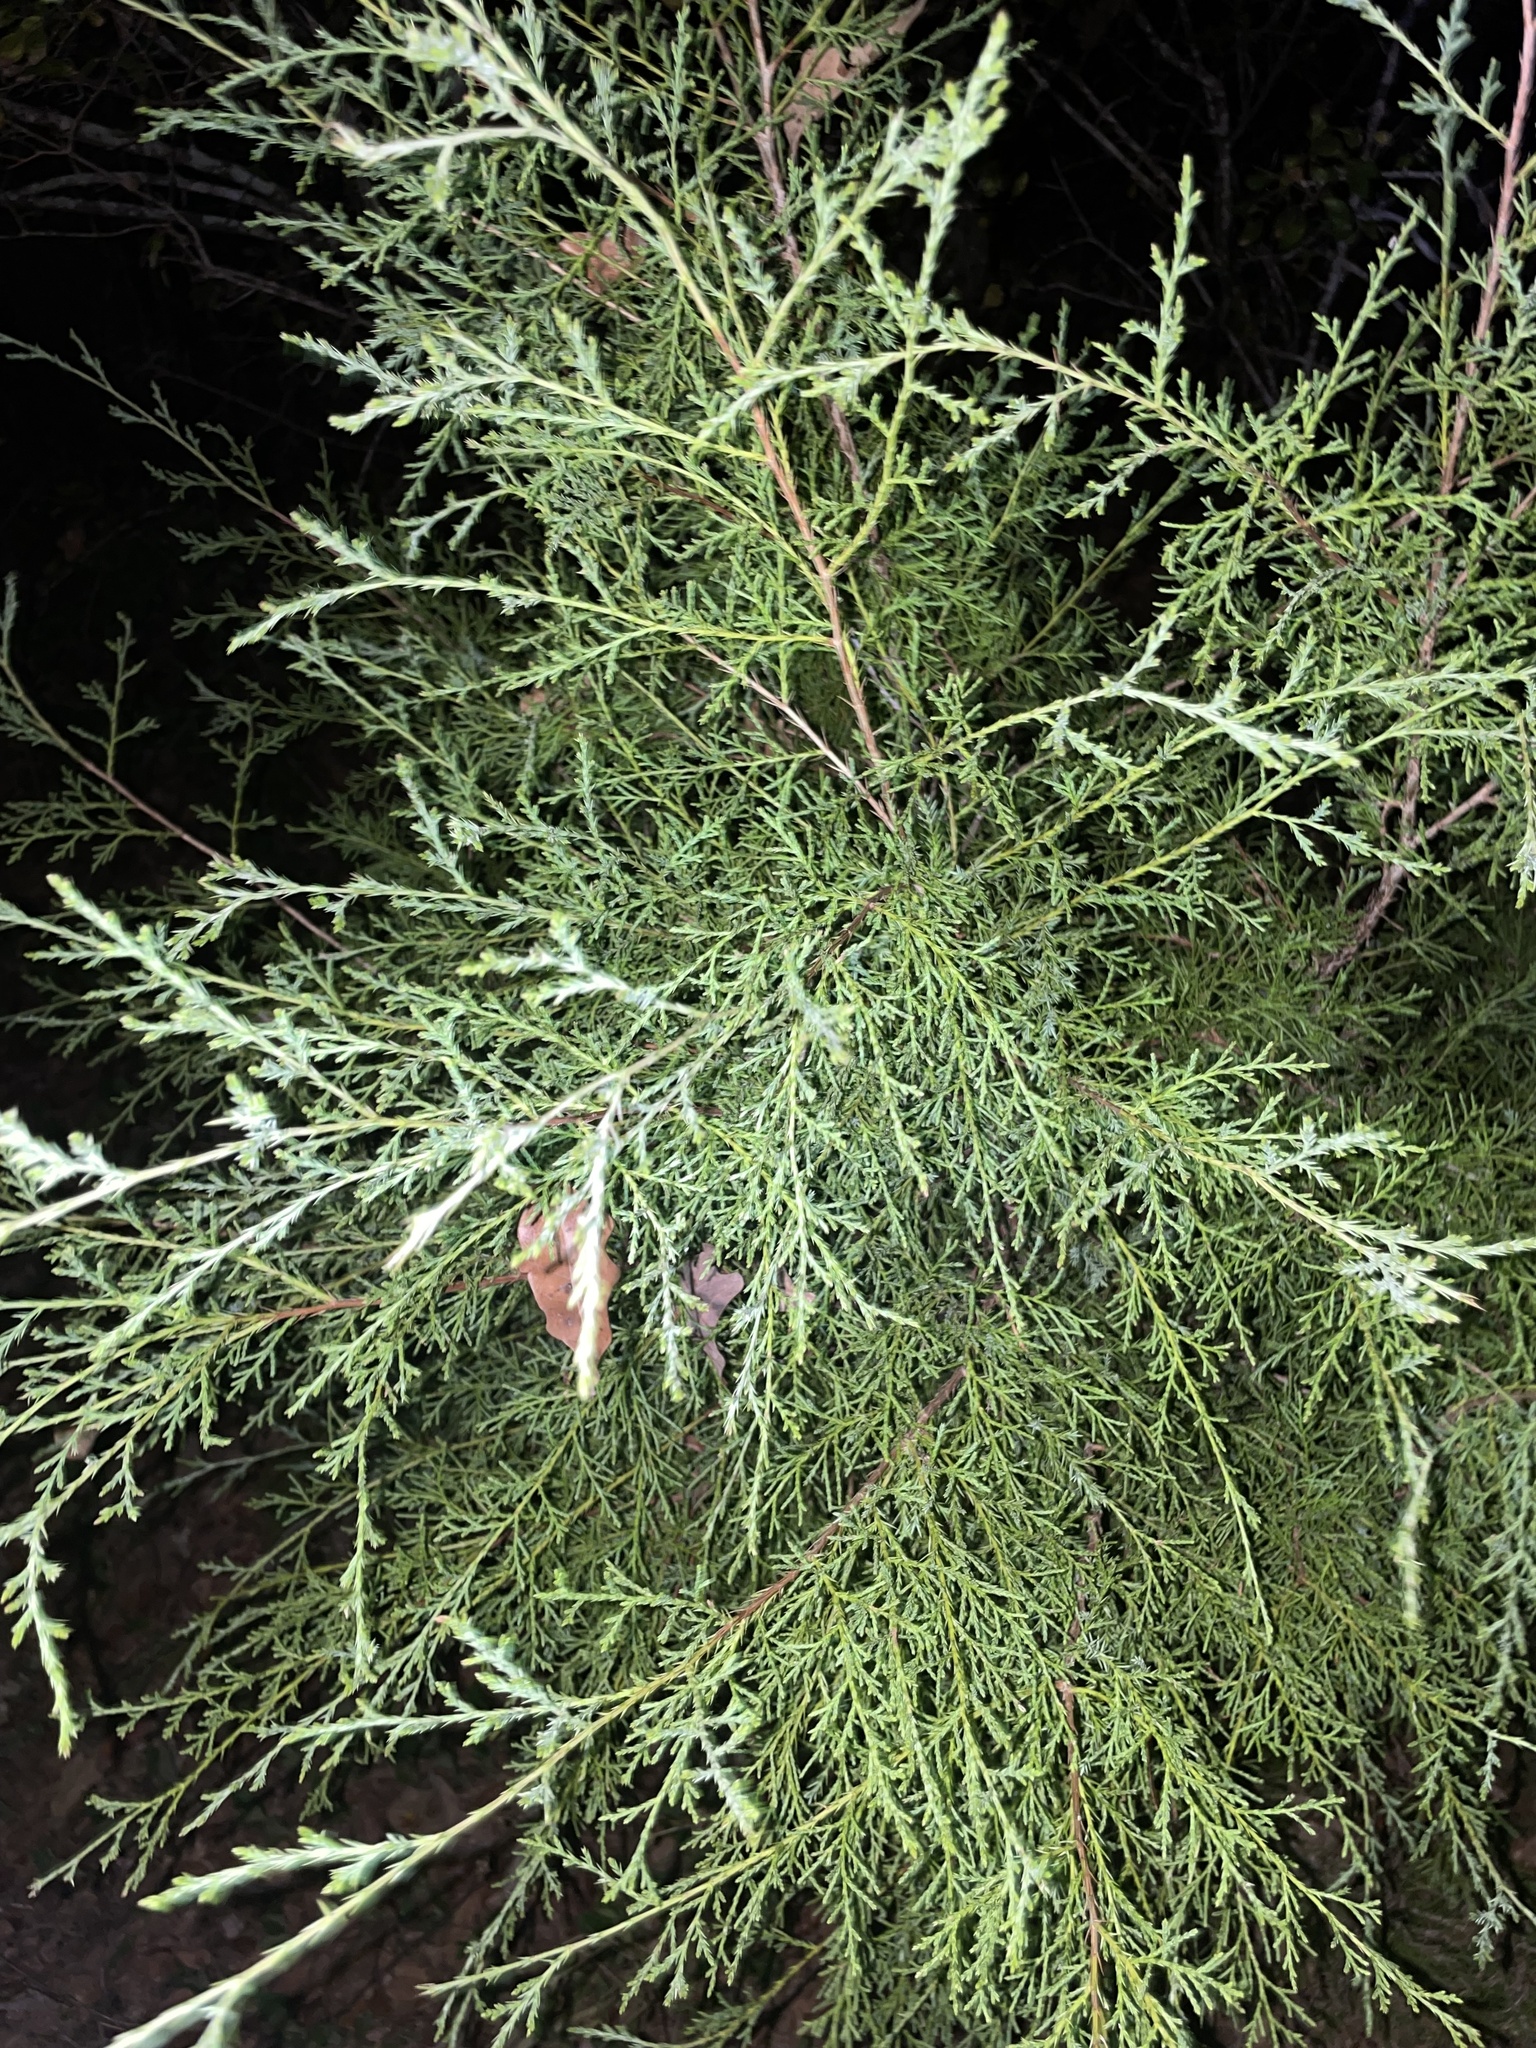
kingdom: Plantae
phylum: Tracheophyta
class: Pinopsida
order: Pinales
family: Cupressaceae
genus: Juniperus
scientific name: Juniperus virginiana
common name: Red juniper
